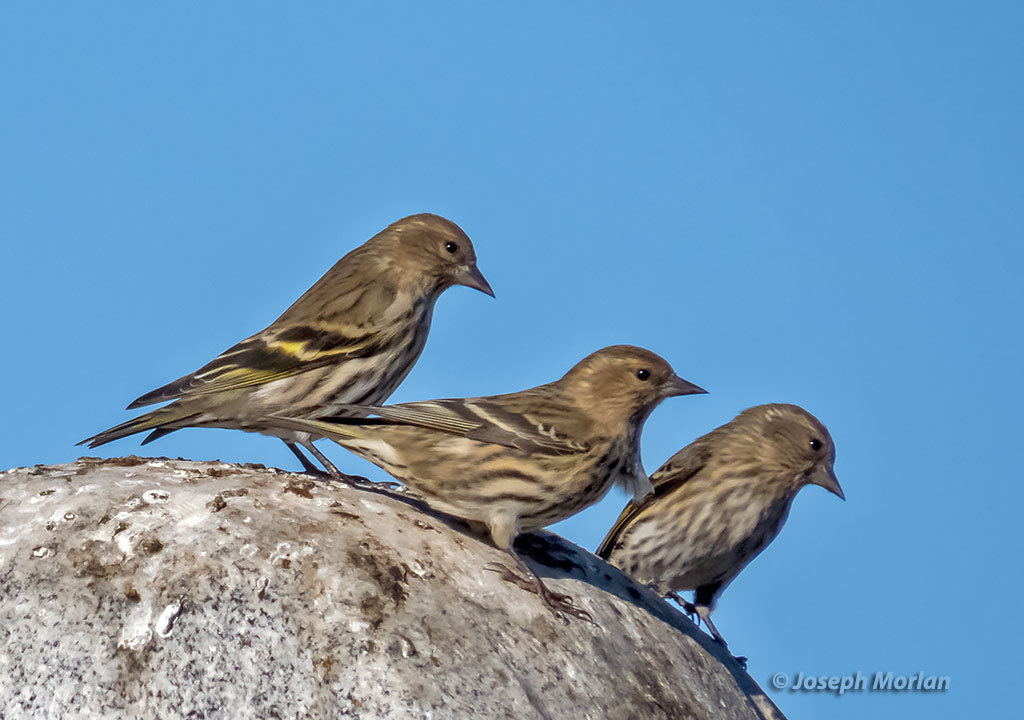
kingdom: Animalia
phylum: Chordata
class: Aves
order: Passeriformes
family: Fringillidae
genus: Spinus
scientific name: Spinus pinus
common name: Pine siskin
